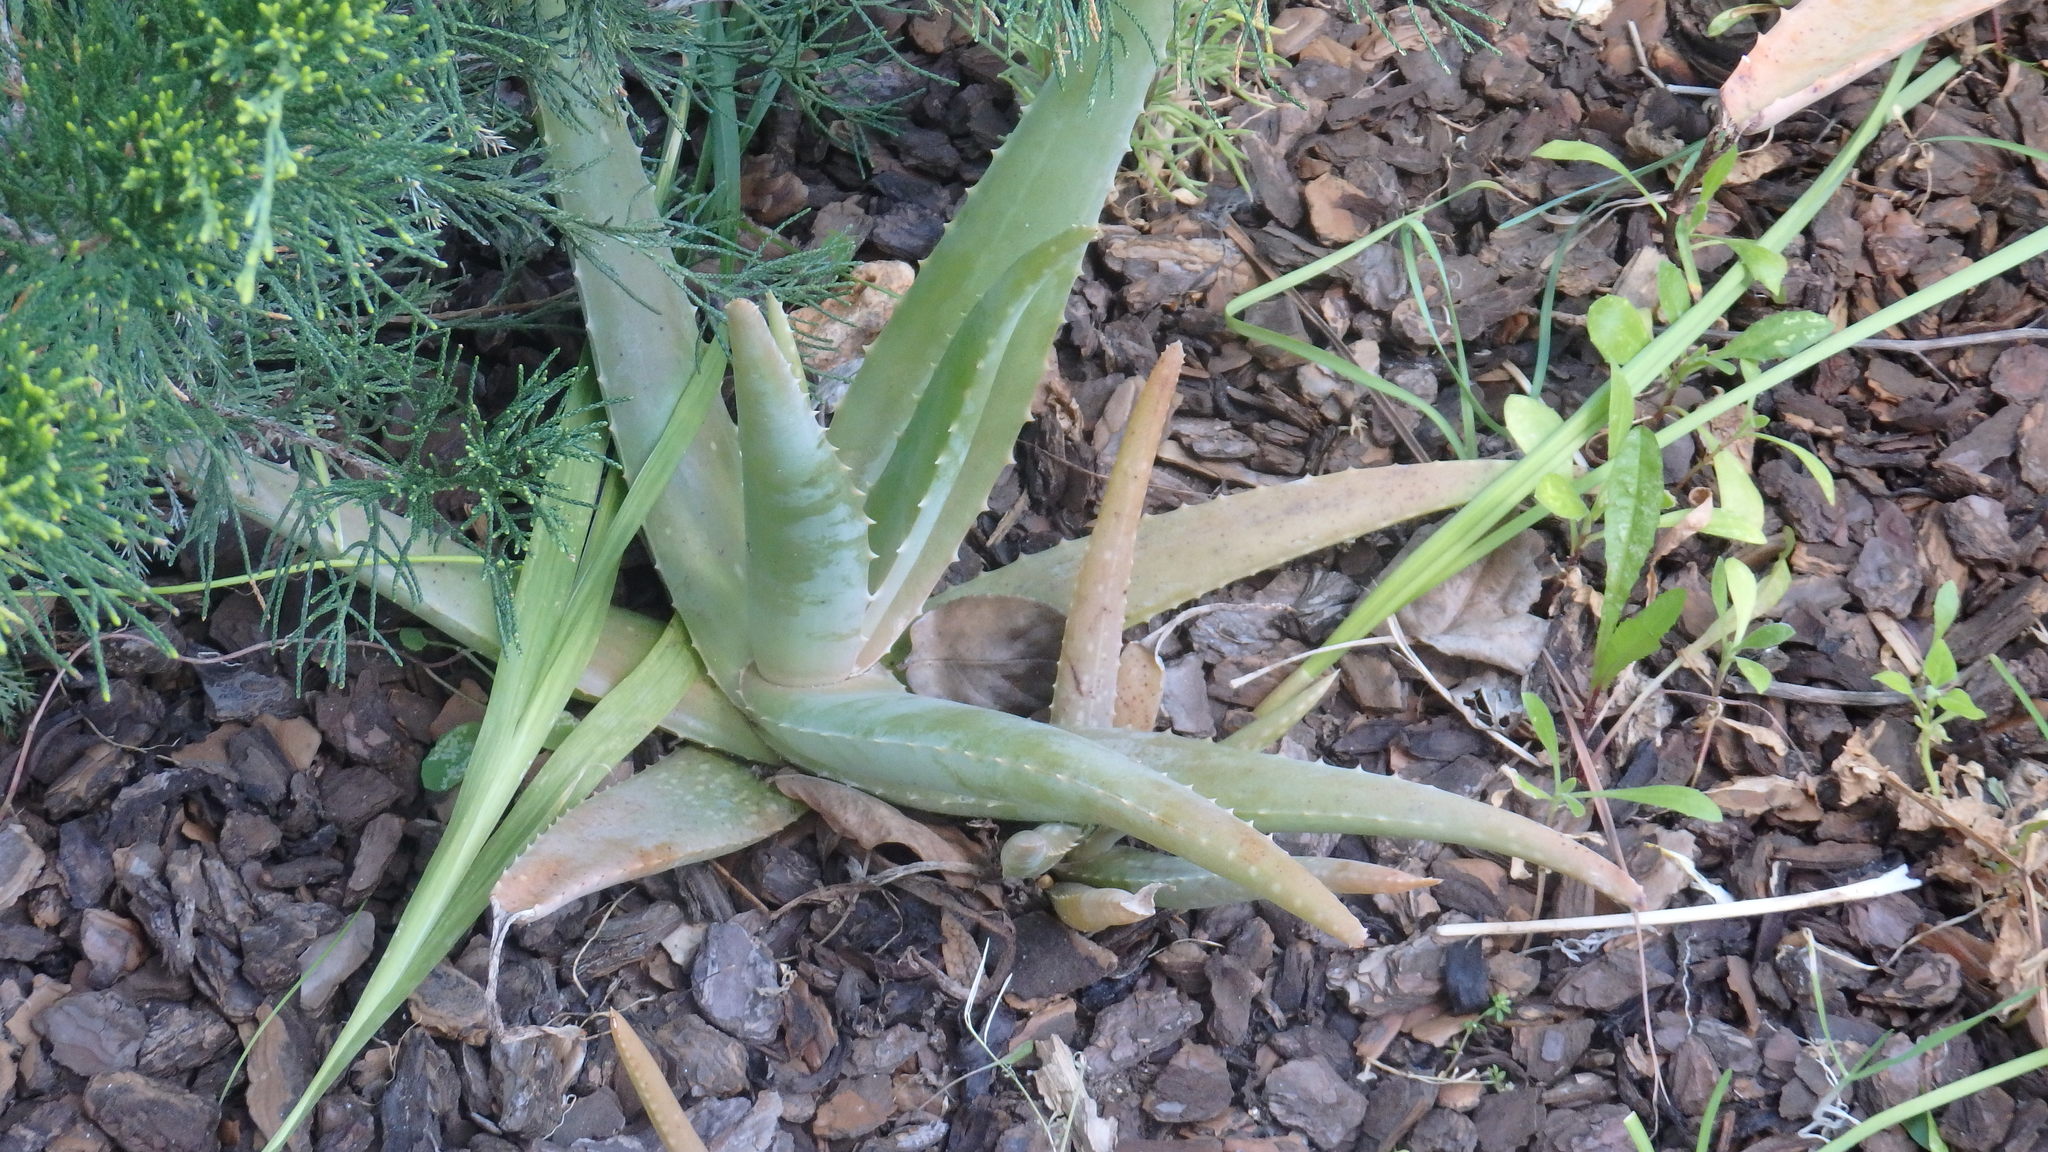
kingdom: Plantae
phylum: Tracheophyta
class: Liliopsida
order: Asparagales
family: Asphodelaceae
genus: Aloe
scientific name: Aloe vera
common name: Barbados aloe
